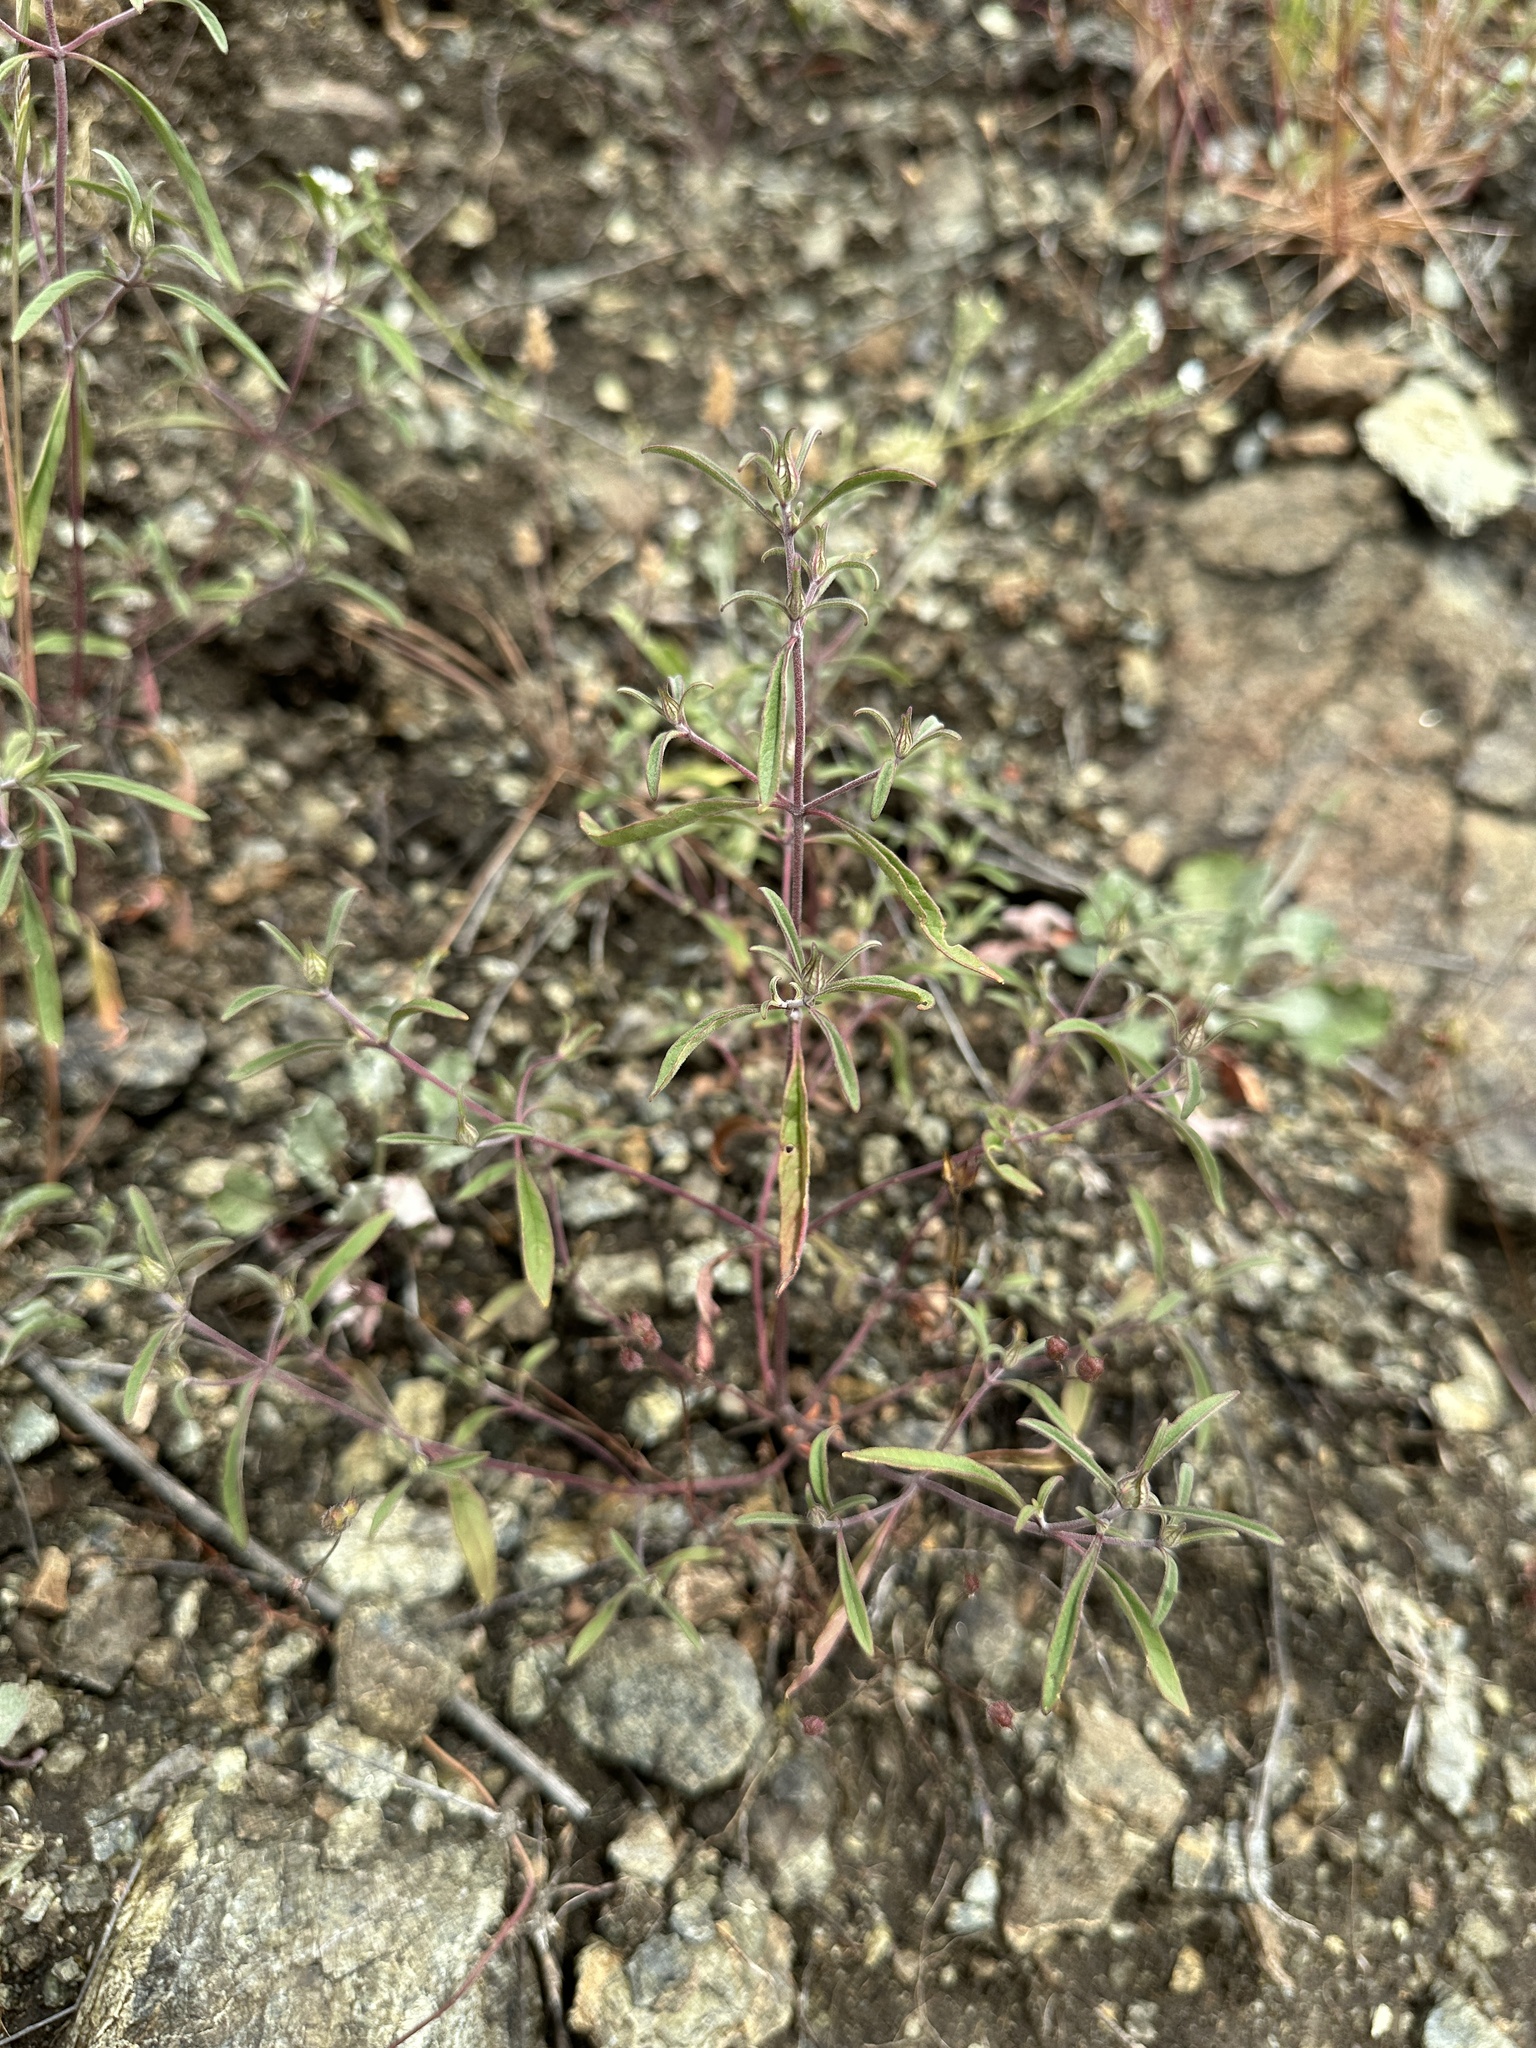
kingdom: Plantae
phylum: Tracheophyta
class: Magnoliopsida
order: Lamiales
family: Lamiaceae
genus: Monardella
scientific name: Monardella douglasii
